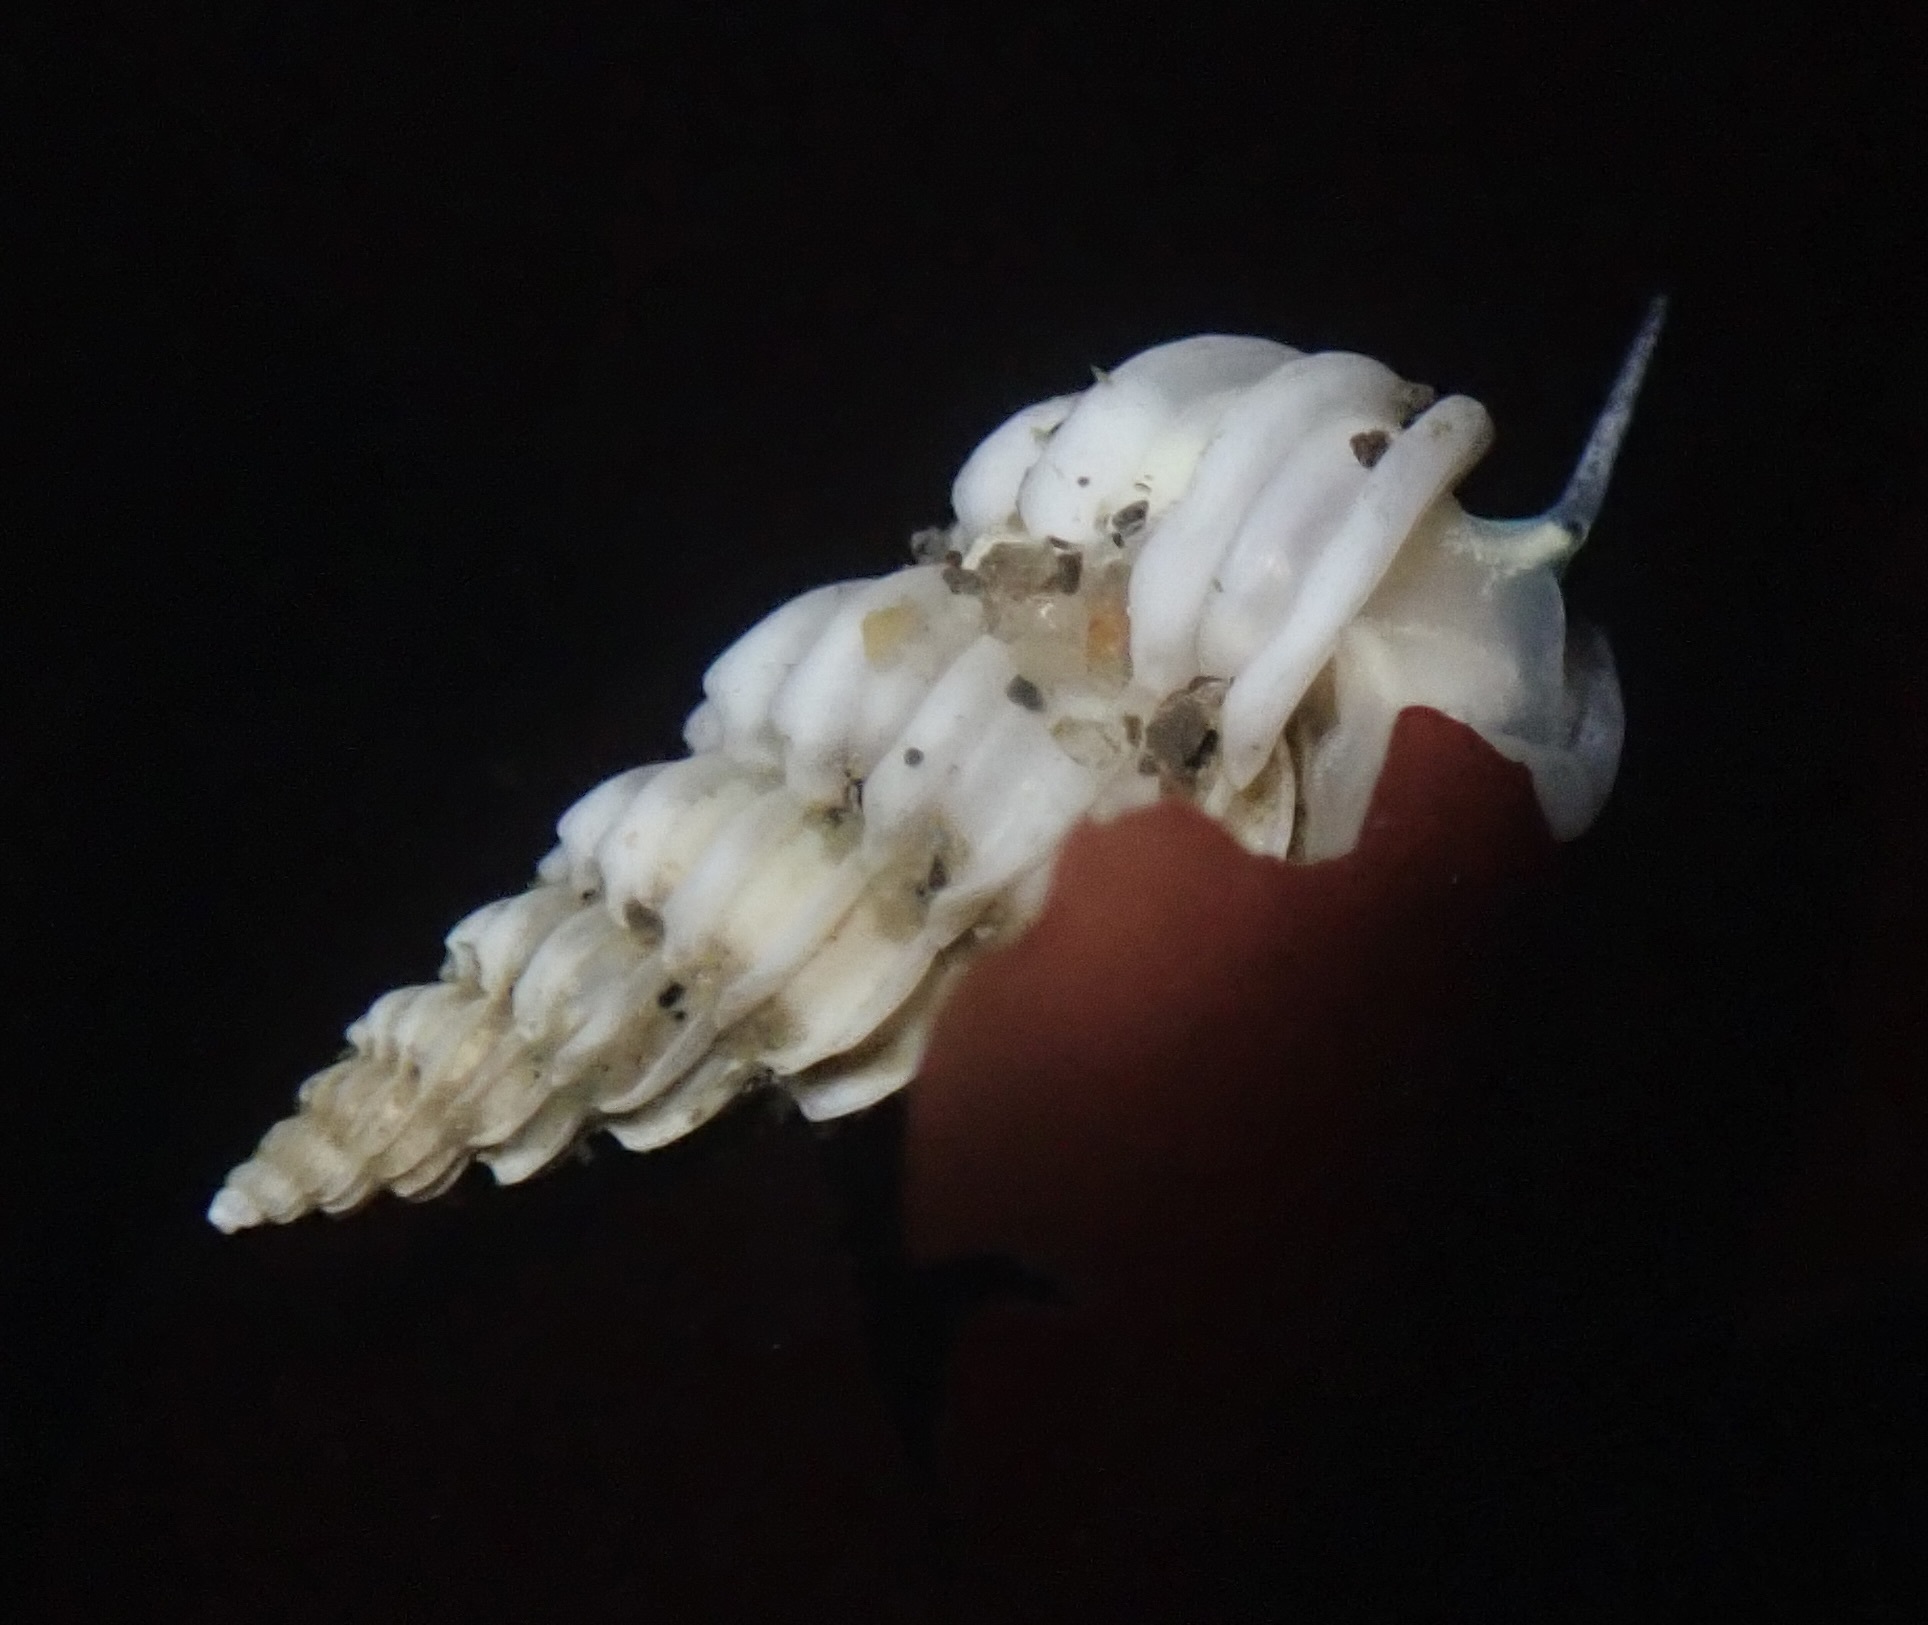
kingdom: Animalia
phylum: Mollusca
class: Gastropoda
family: Epitoniidae
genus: Epitonium
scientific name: Epitonium tinctum
